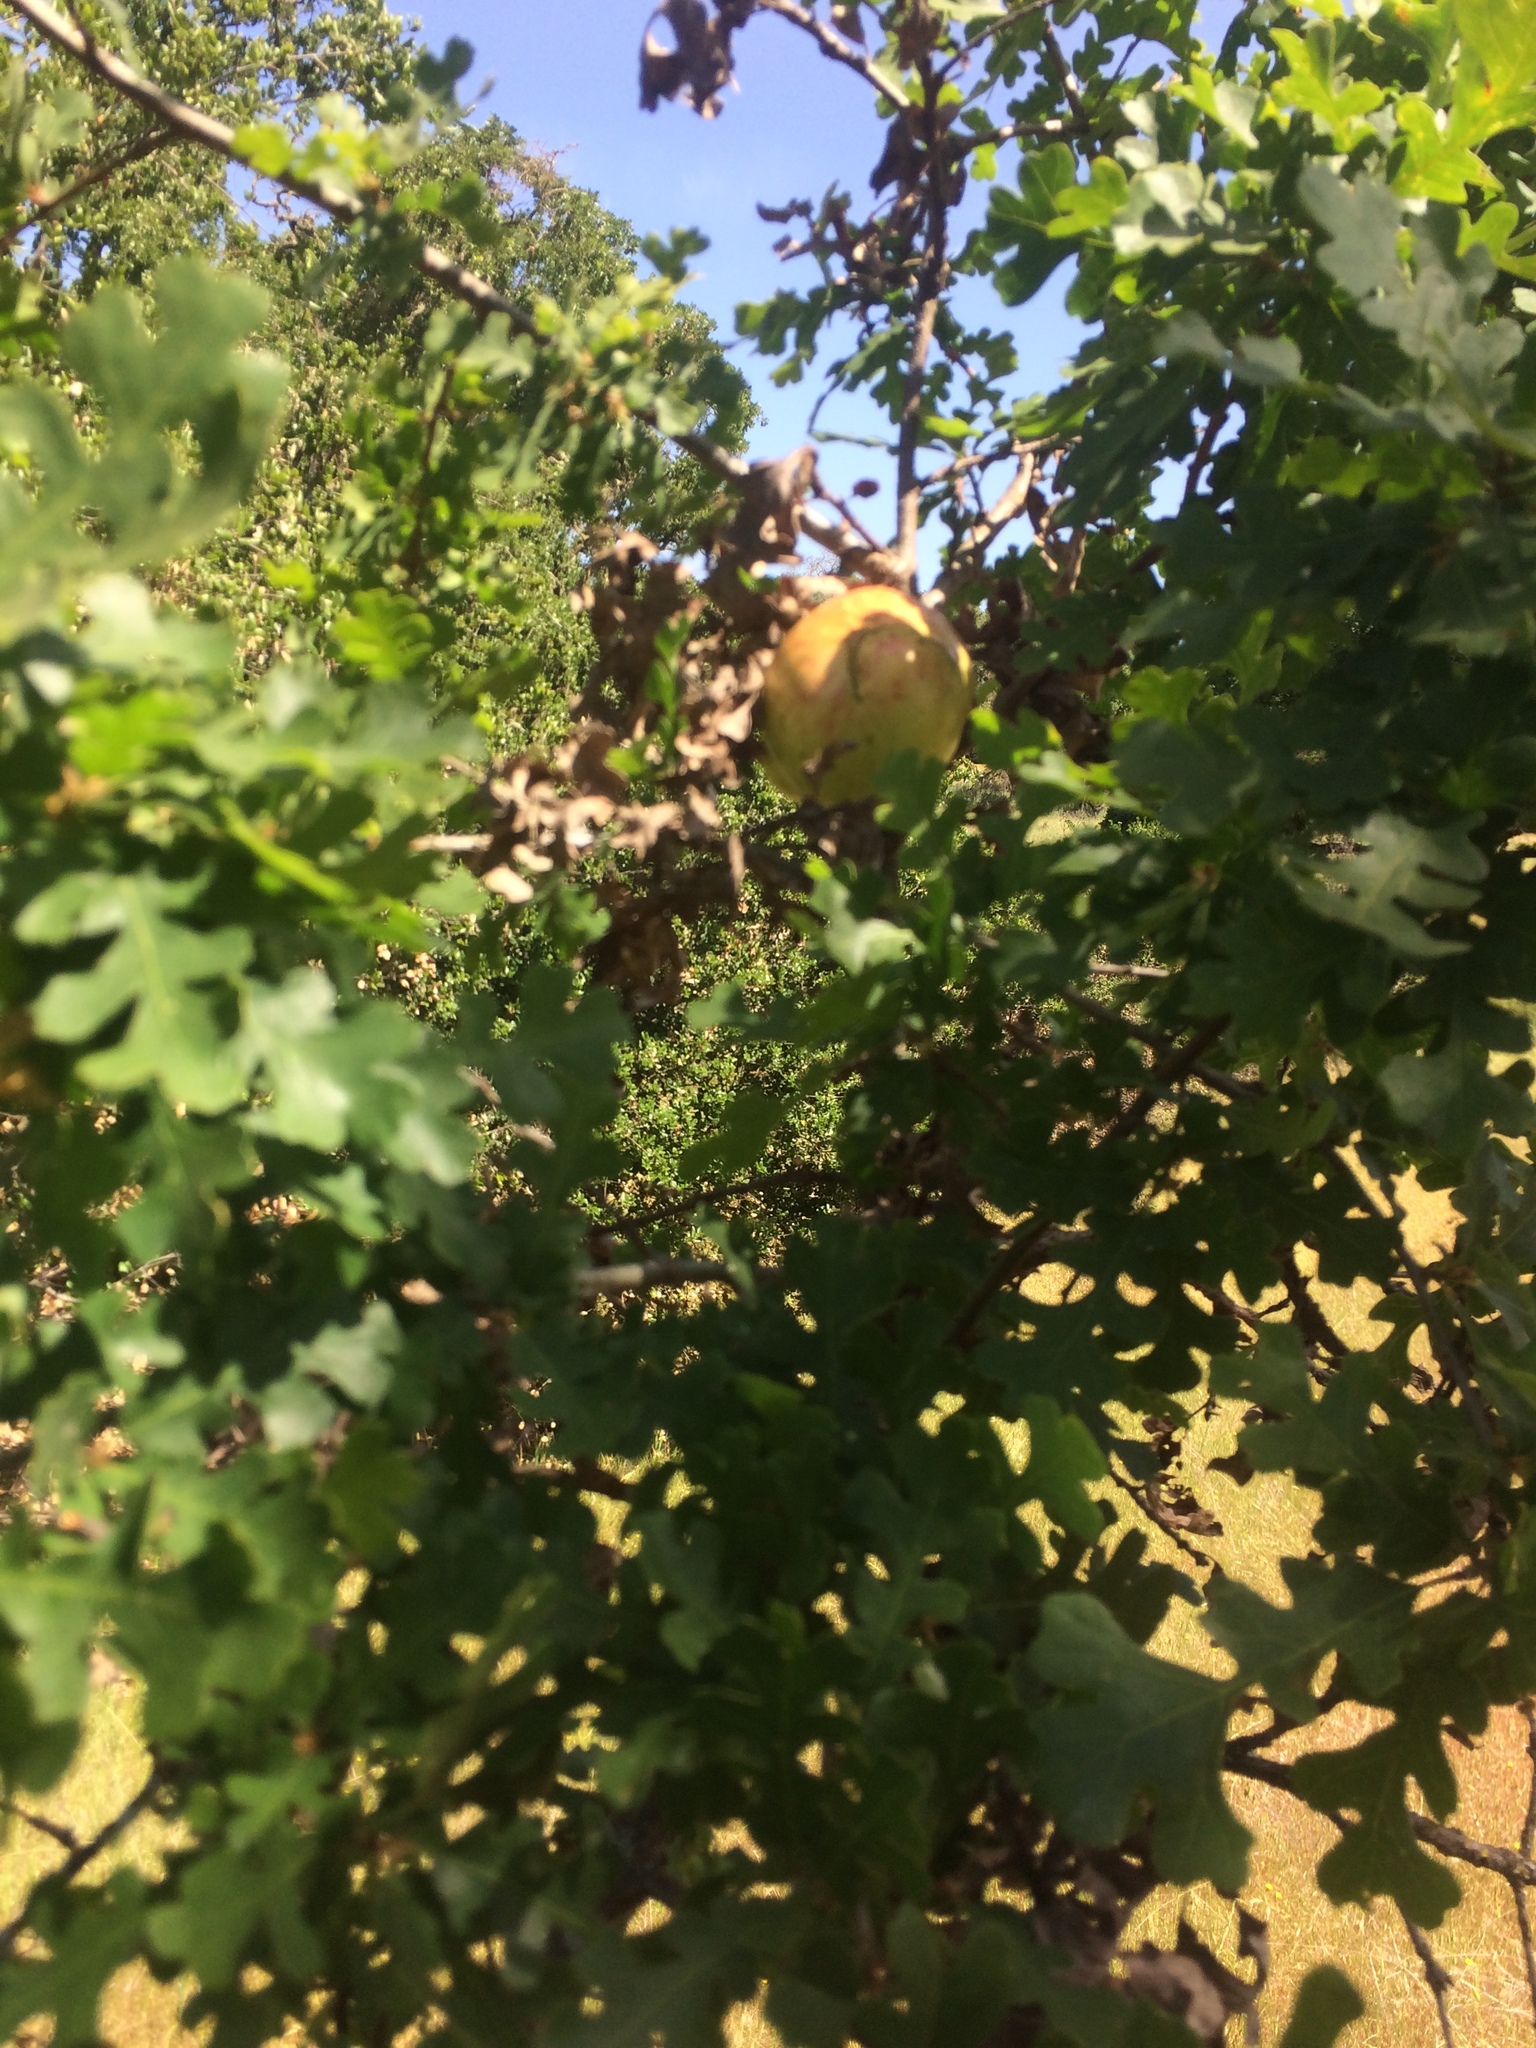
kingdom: Animalia
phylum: Arthropoda
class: Insecta
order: Hymenoptera
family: Cynipidae
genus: Andricus
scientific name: Andricus quercuscalifornicus
